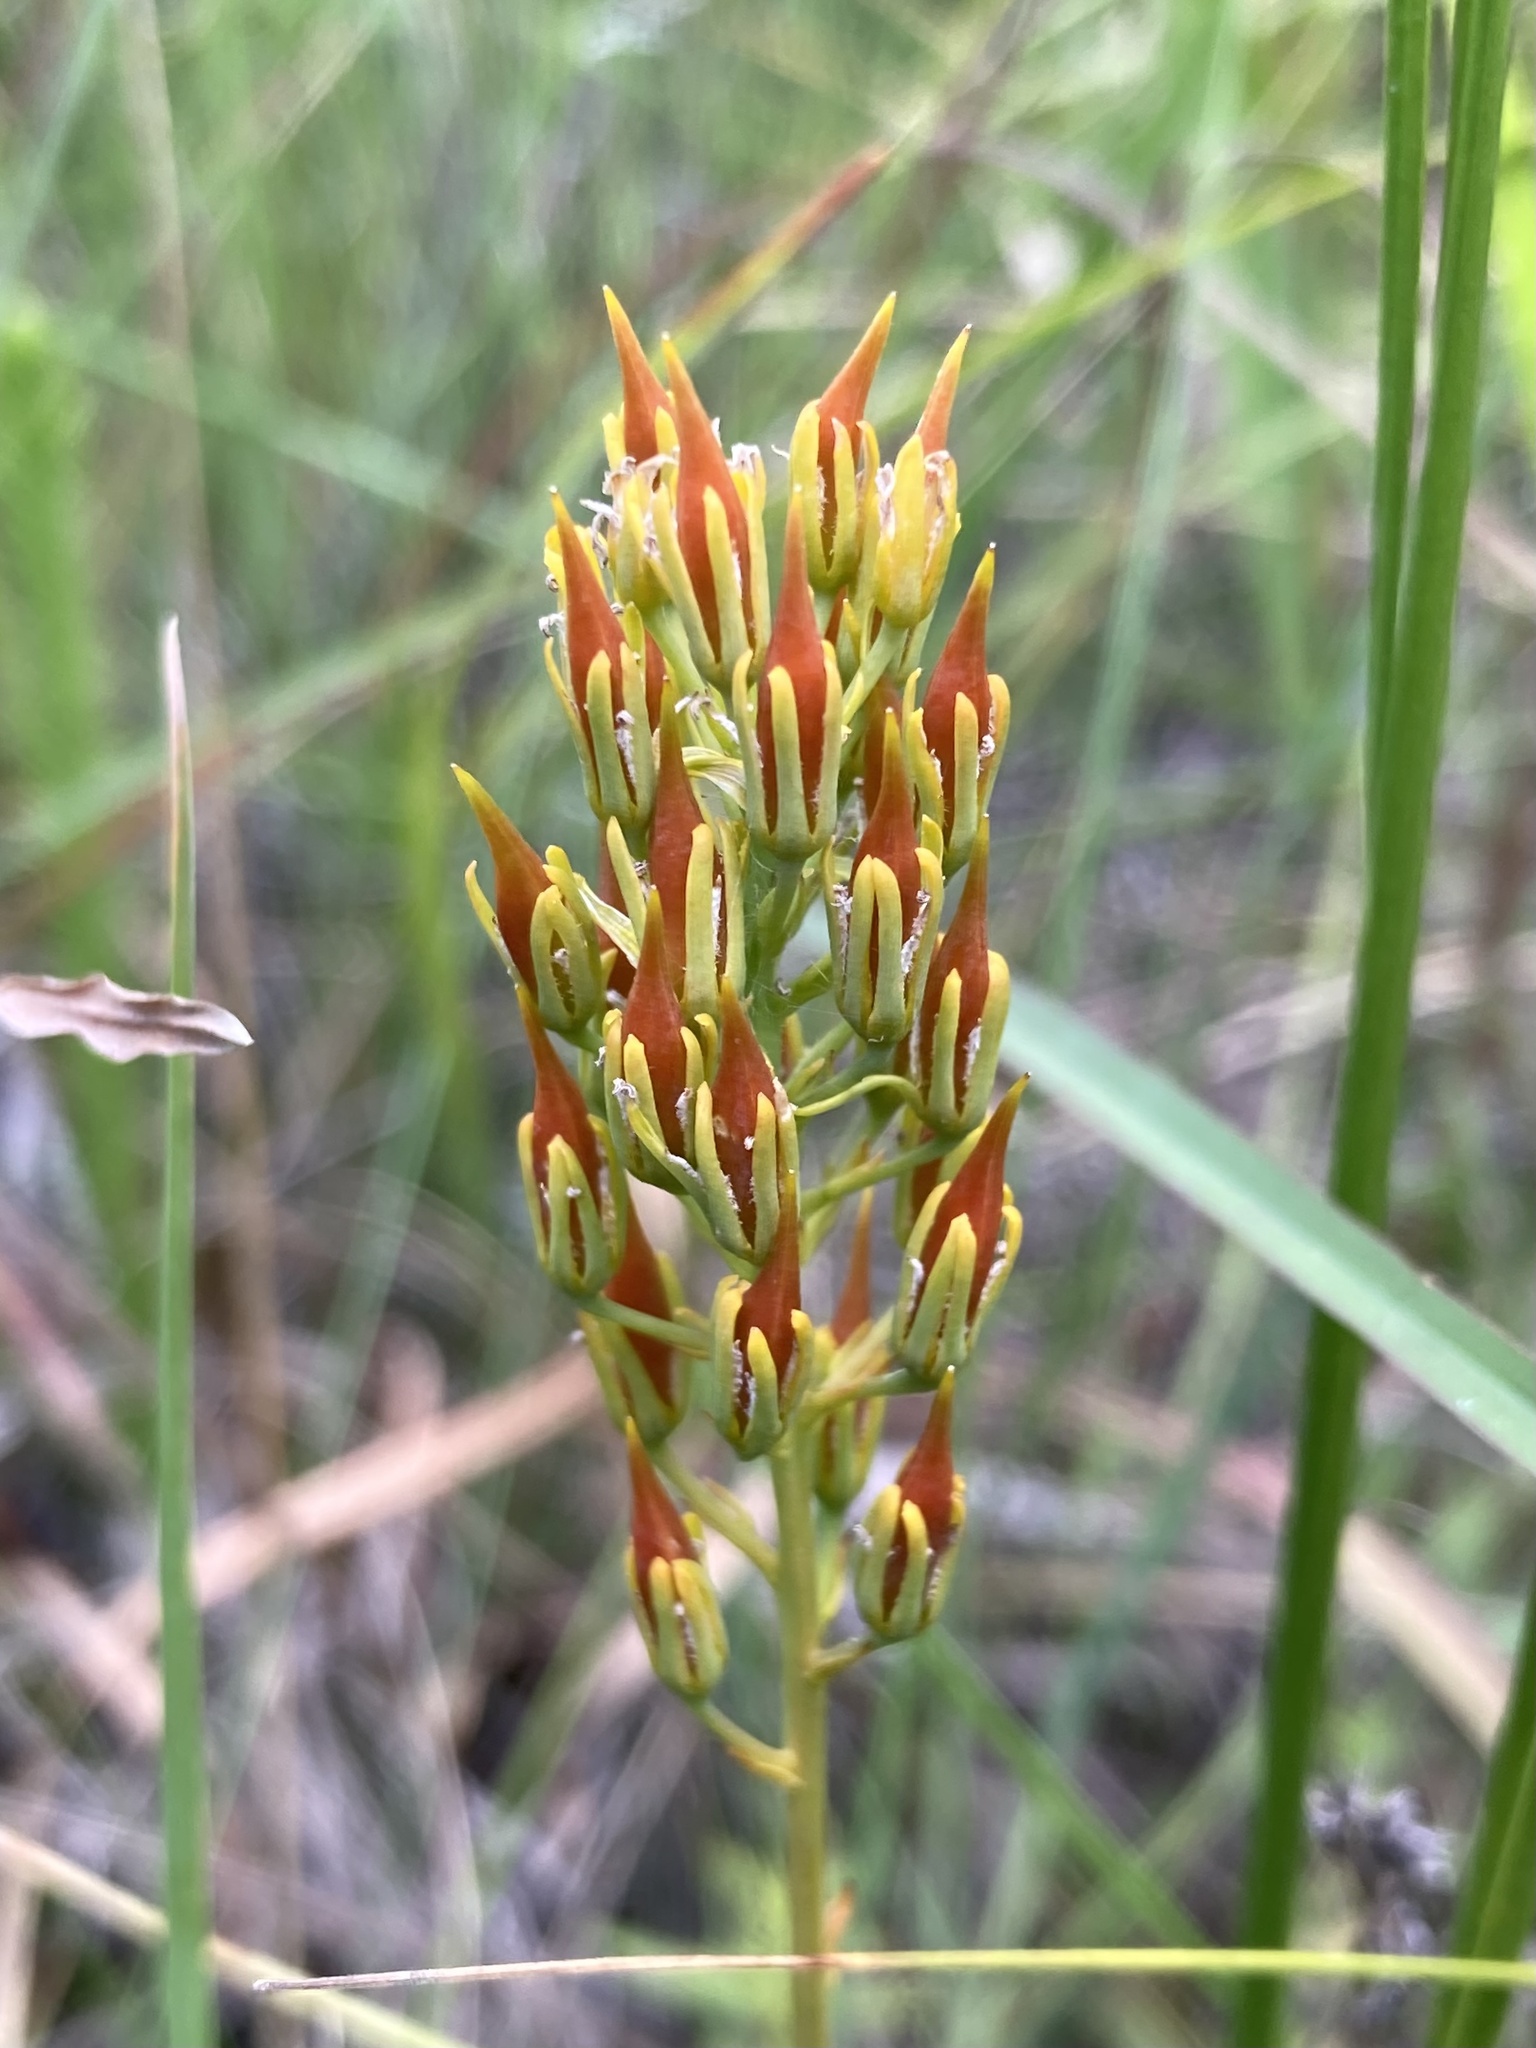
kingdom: Plantae
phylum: Tracheophyta
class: Liliopsida
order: Dioscoreales
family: Nartheciaceae
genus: Narthecium
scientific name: Narthecium americanum
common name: Bog-asphodel
